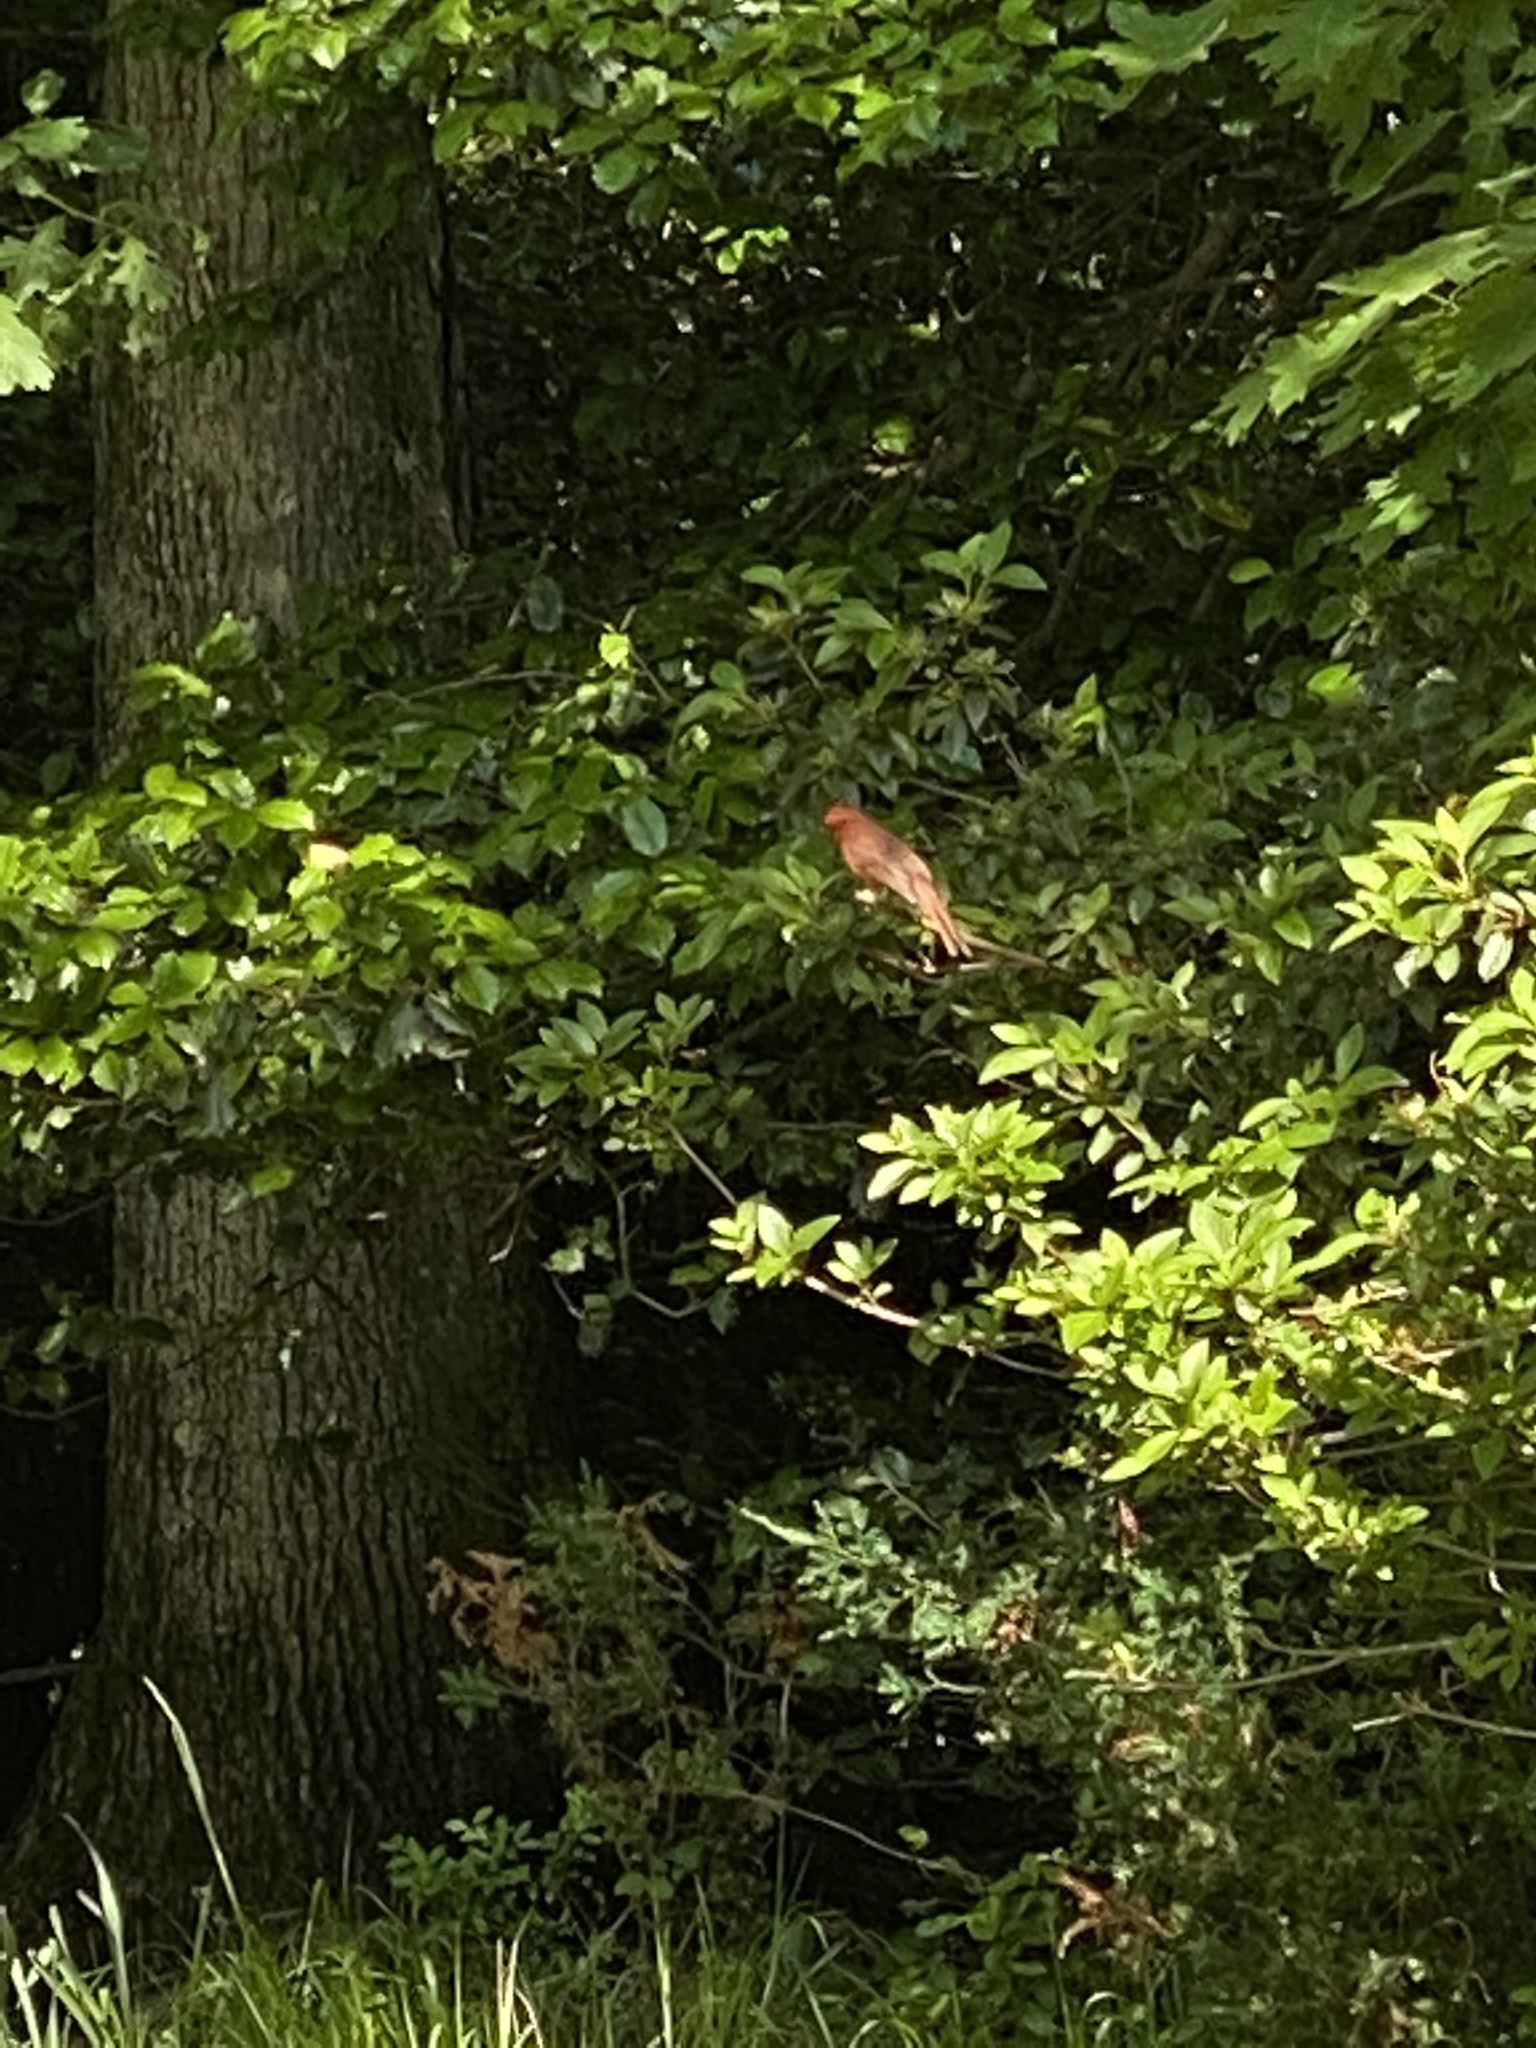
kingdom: Animalia
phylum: Chordata
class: Aves
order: Passeriformes
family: Cardinalidae
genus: Cardinalis
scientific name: Cardinalis cardinalis
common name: Northern cardinal
